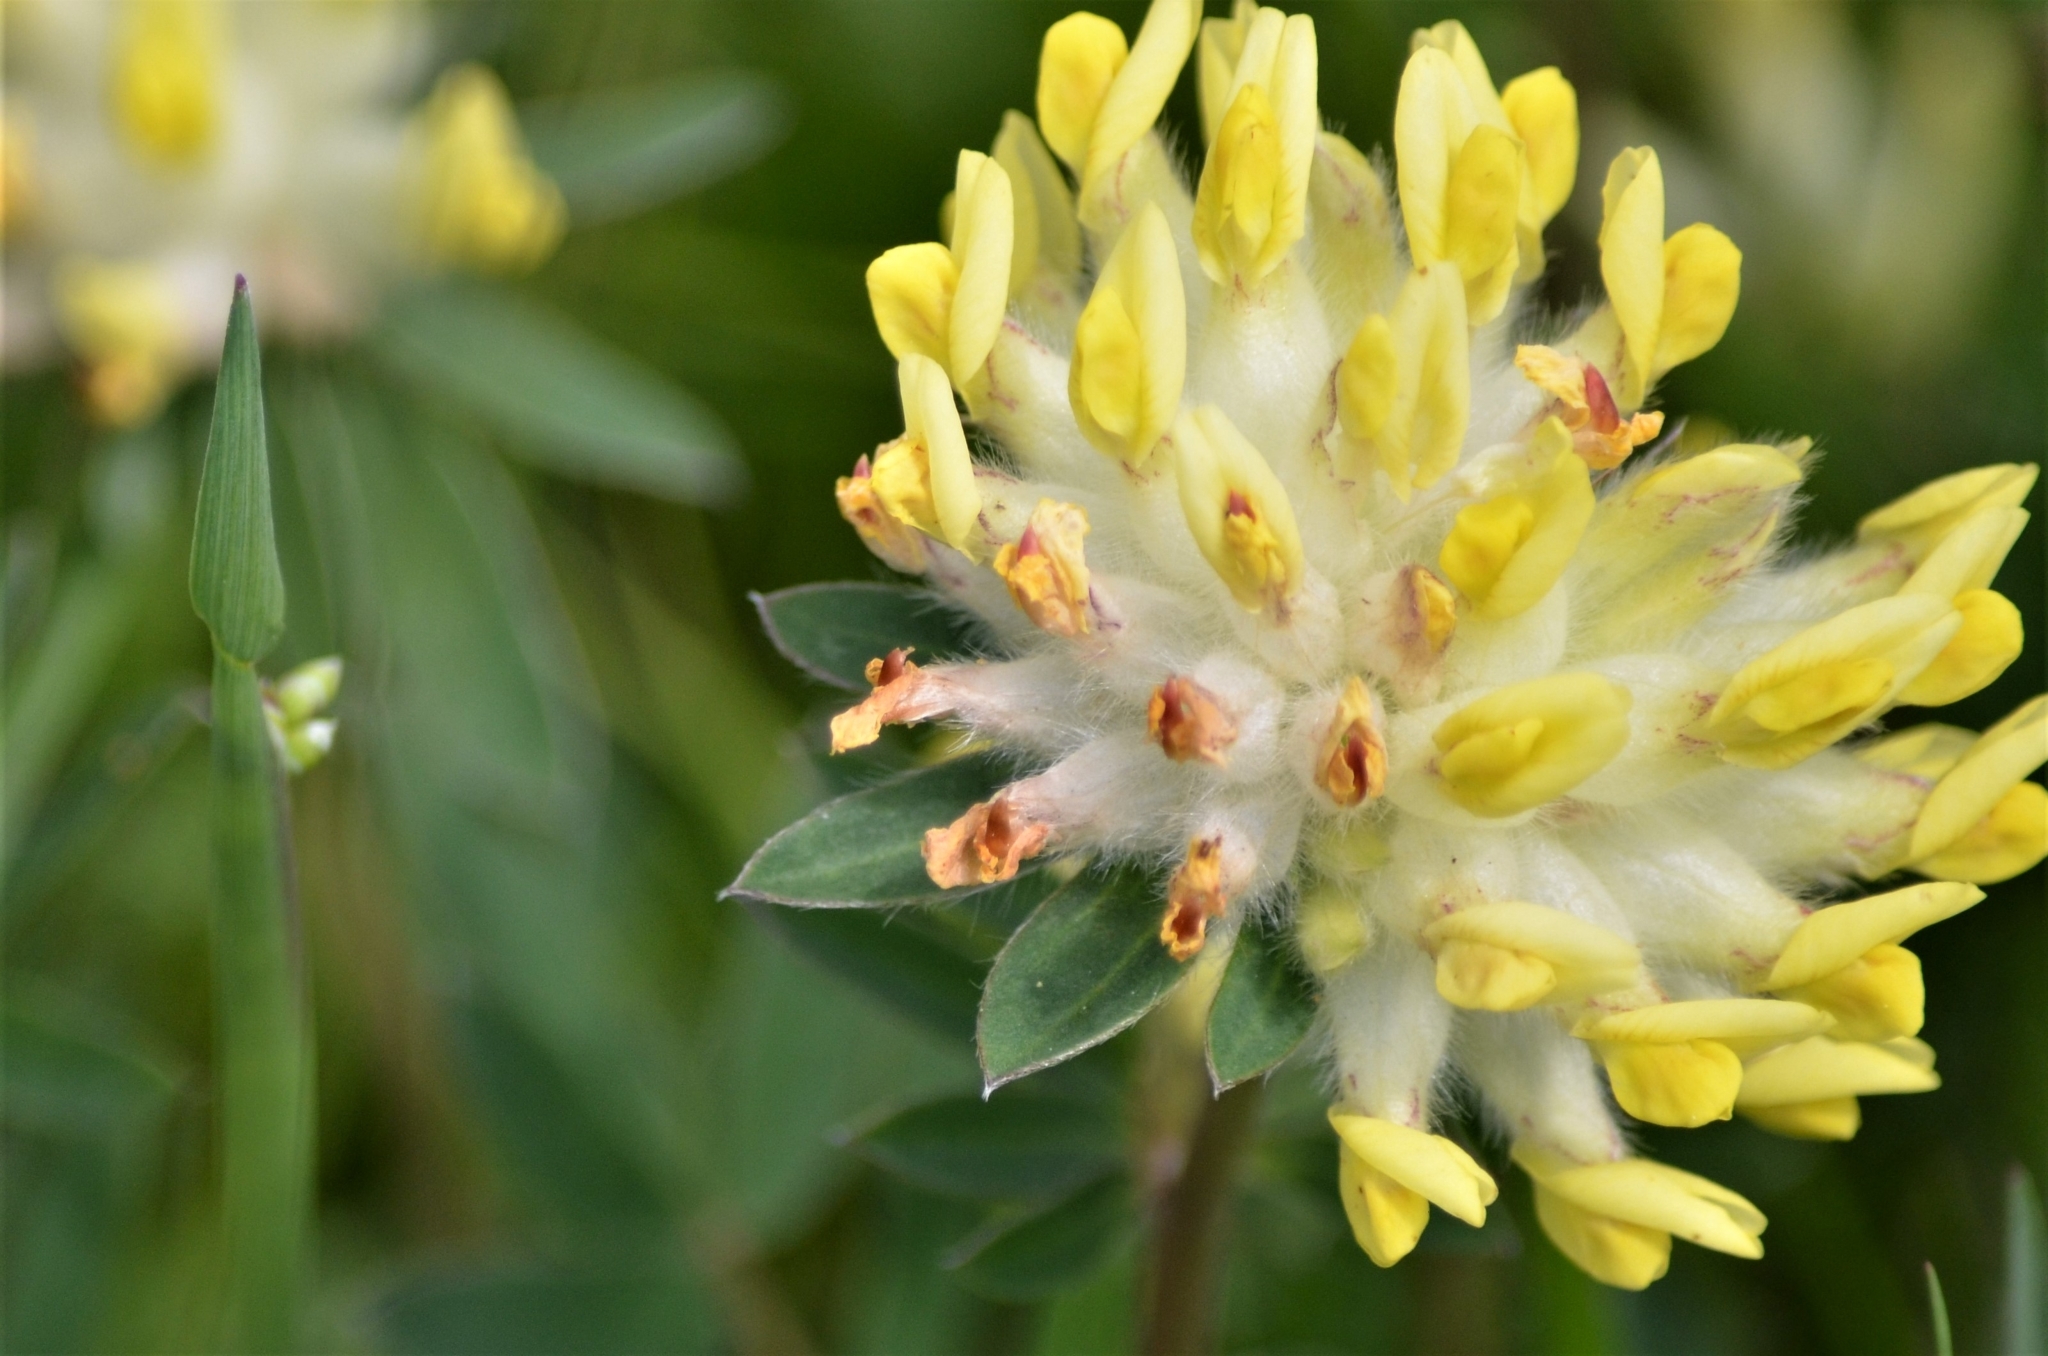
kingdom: Plantae
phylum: Tracheophyta
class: Magnoliopsida
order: Fabales
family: Fabaceae
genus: Anthyllis
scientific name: Anthyllis vulneraria
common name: Kidney vetch
